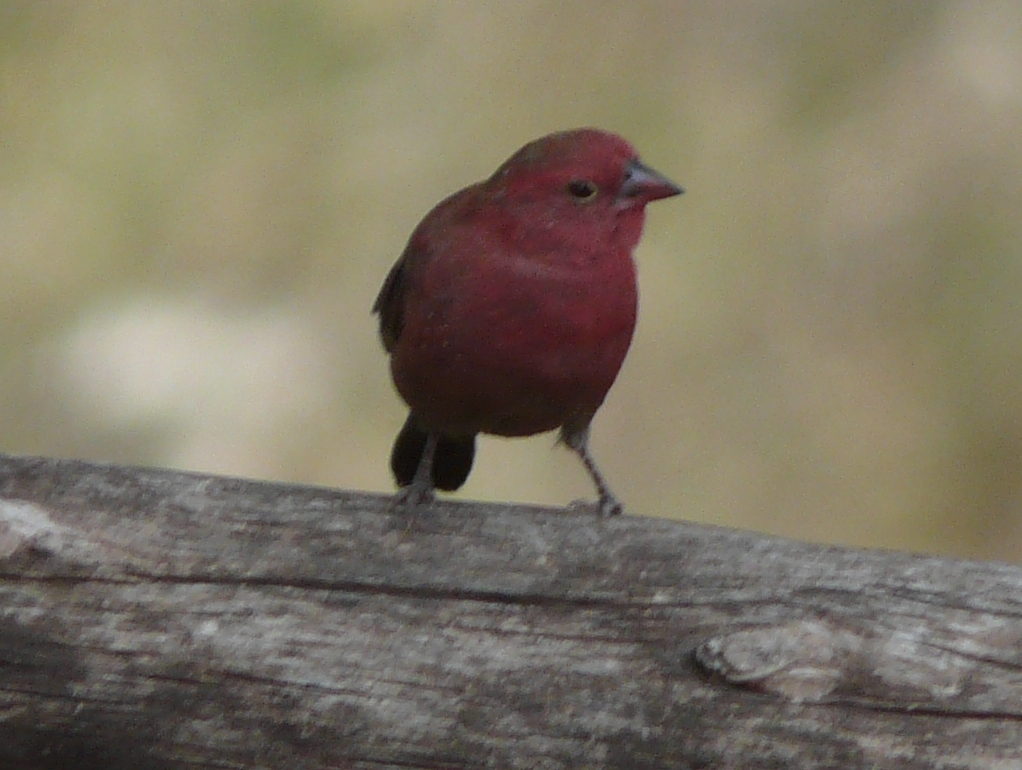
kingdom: Animalia
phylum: Chordata
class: Aves
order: Passeriformes
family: Estrildidae
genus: Lagonosticta
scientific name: Lagonosticta senegala
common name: Red-billed firefinch
